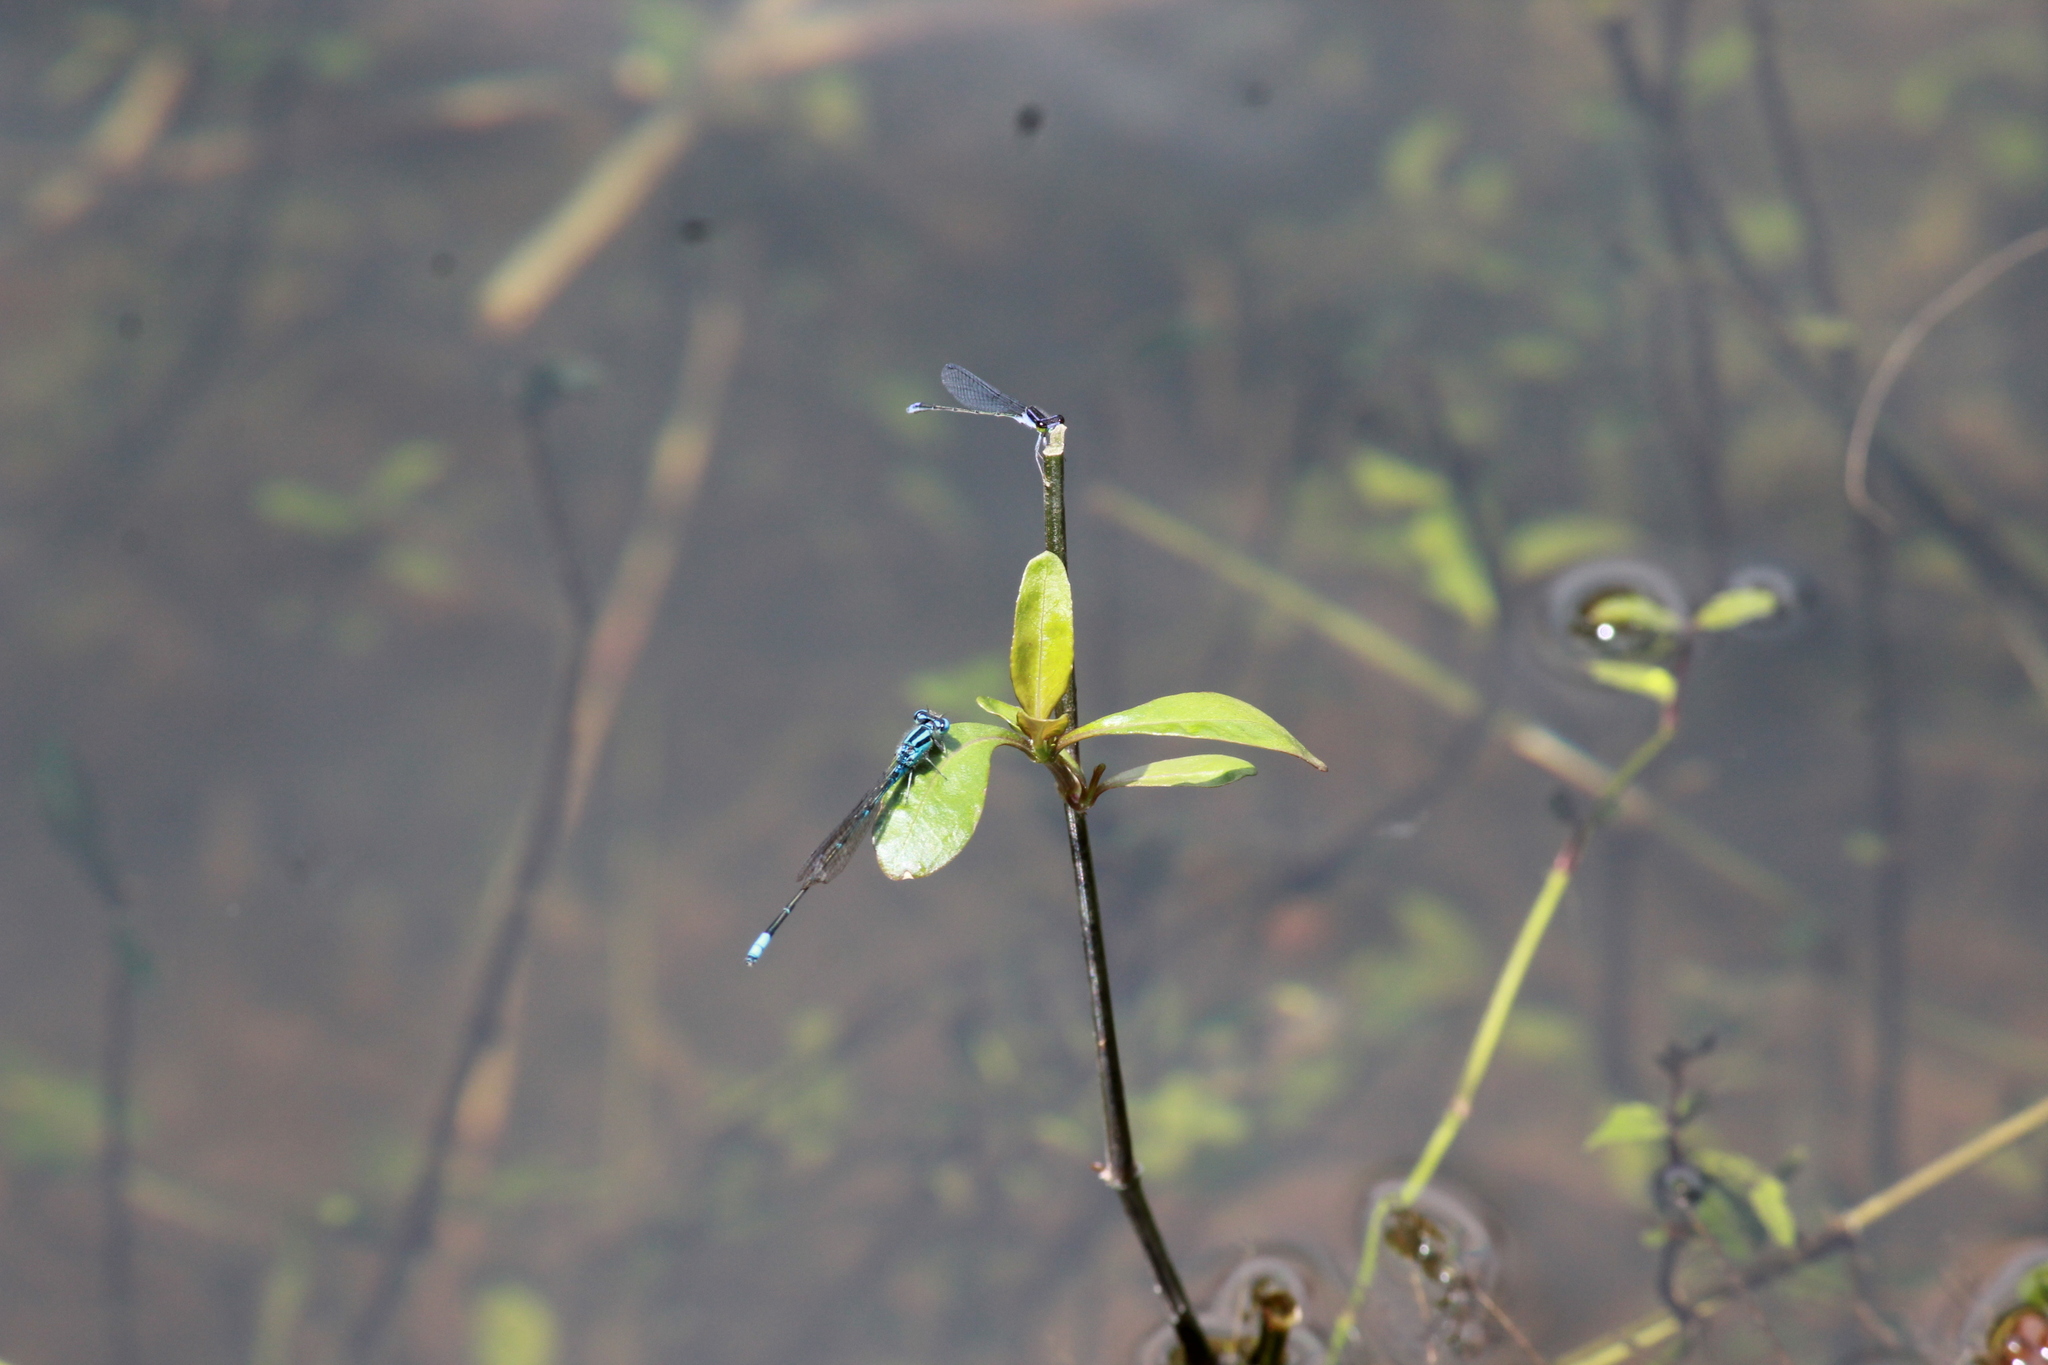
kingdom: Animalia
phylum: Arthropoda
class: Insecta
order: Odonata
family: Coenagrionidae
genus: Aciagrion
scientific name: Aciagrion approximans
